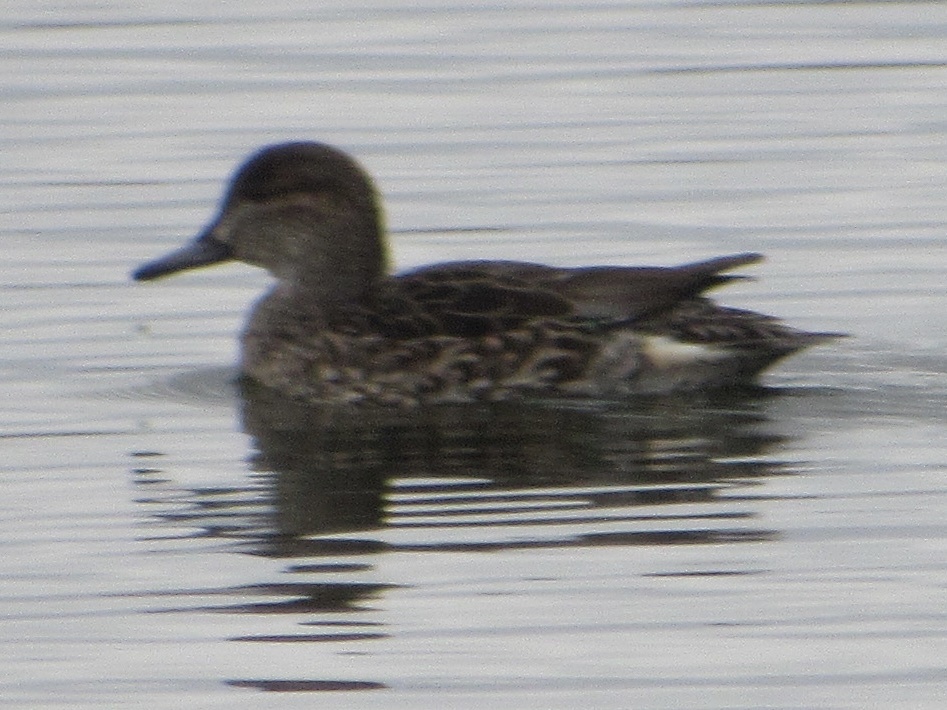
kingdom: Animalia
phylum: Chordata
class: Aves
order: Anseriformes
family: Anatidae
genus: Anas
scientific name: Anas crecca
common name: Eurasian teal
